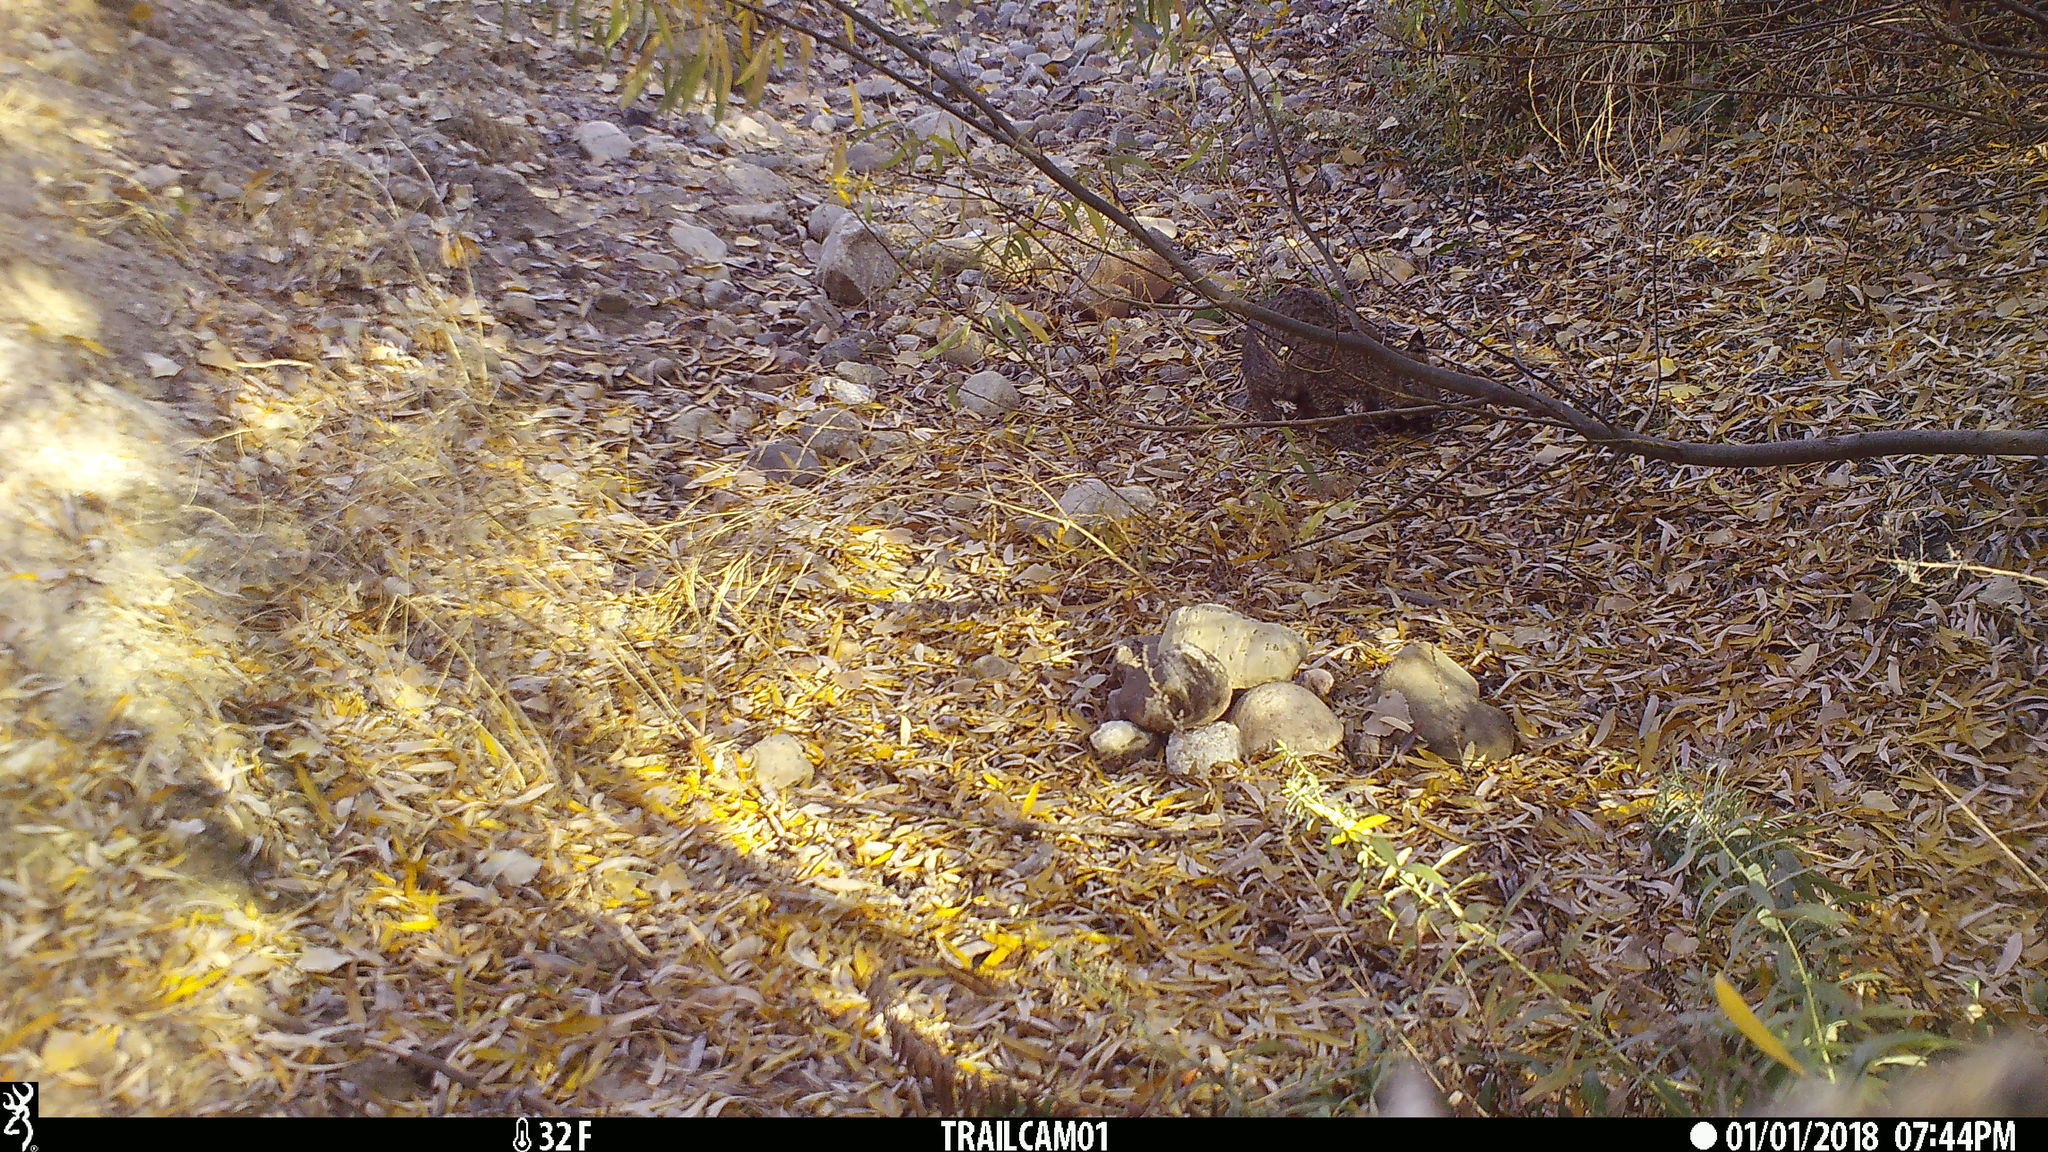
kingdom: Animalia
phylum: Chordata
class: Mammalia
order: Carnivora
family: Felidae
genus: Lynx
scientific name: Lynx rufus
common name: Bobcat
